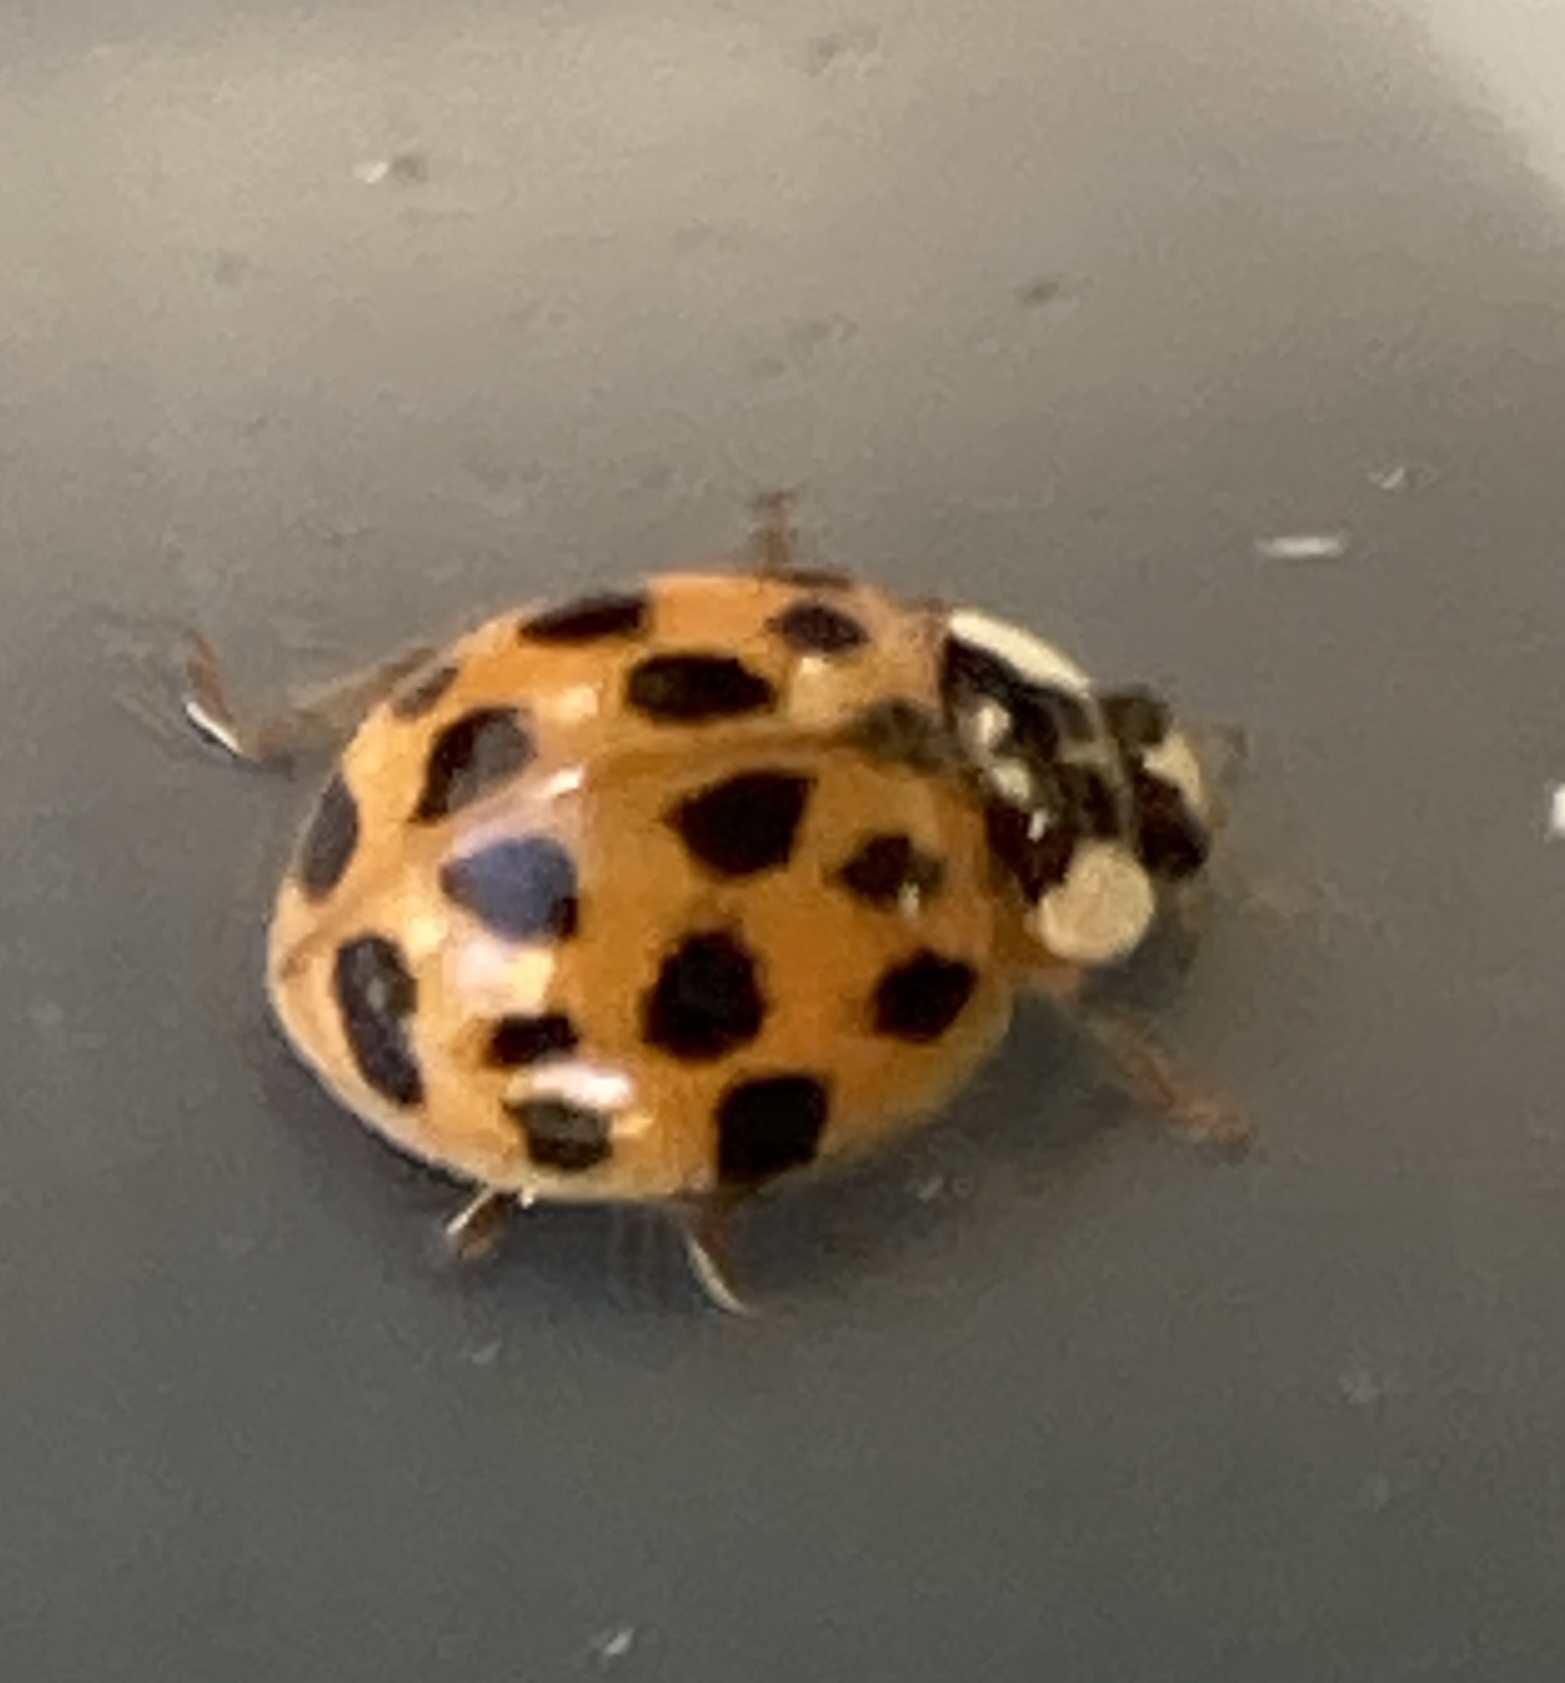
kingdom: Animalia
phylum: Arthropoda
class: Insecta
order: Coleoptera
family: Coccinellidae
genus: Harmonia
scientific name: Harmonia axyridis
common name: Harlequin ladybird
